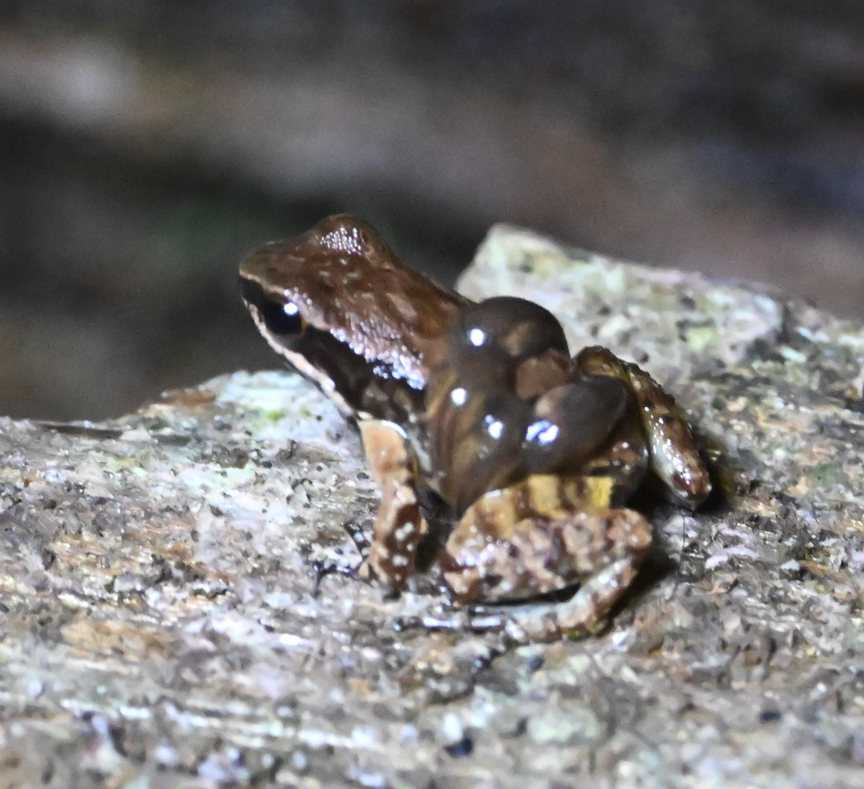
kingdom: Animalia
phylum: Chordata
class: Amphibia
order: Anura
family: Aromobatidae
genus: Mannophryne
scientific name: Mannophryne trinitatis
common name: Trinidad poison frog
